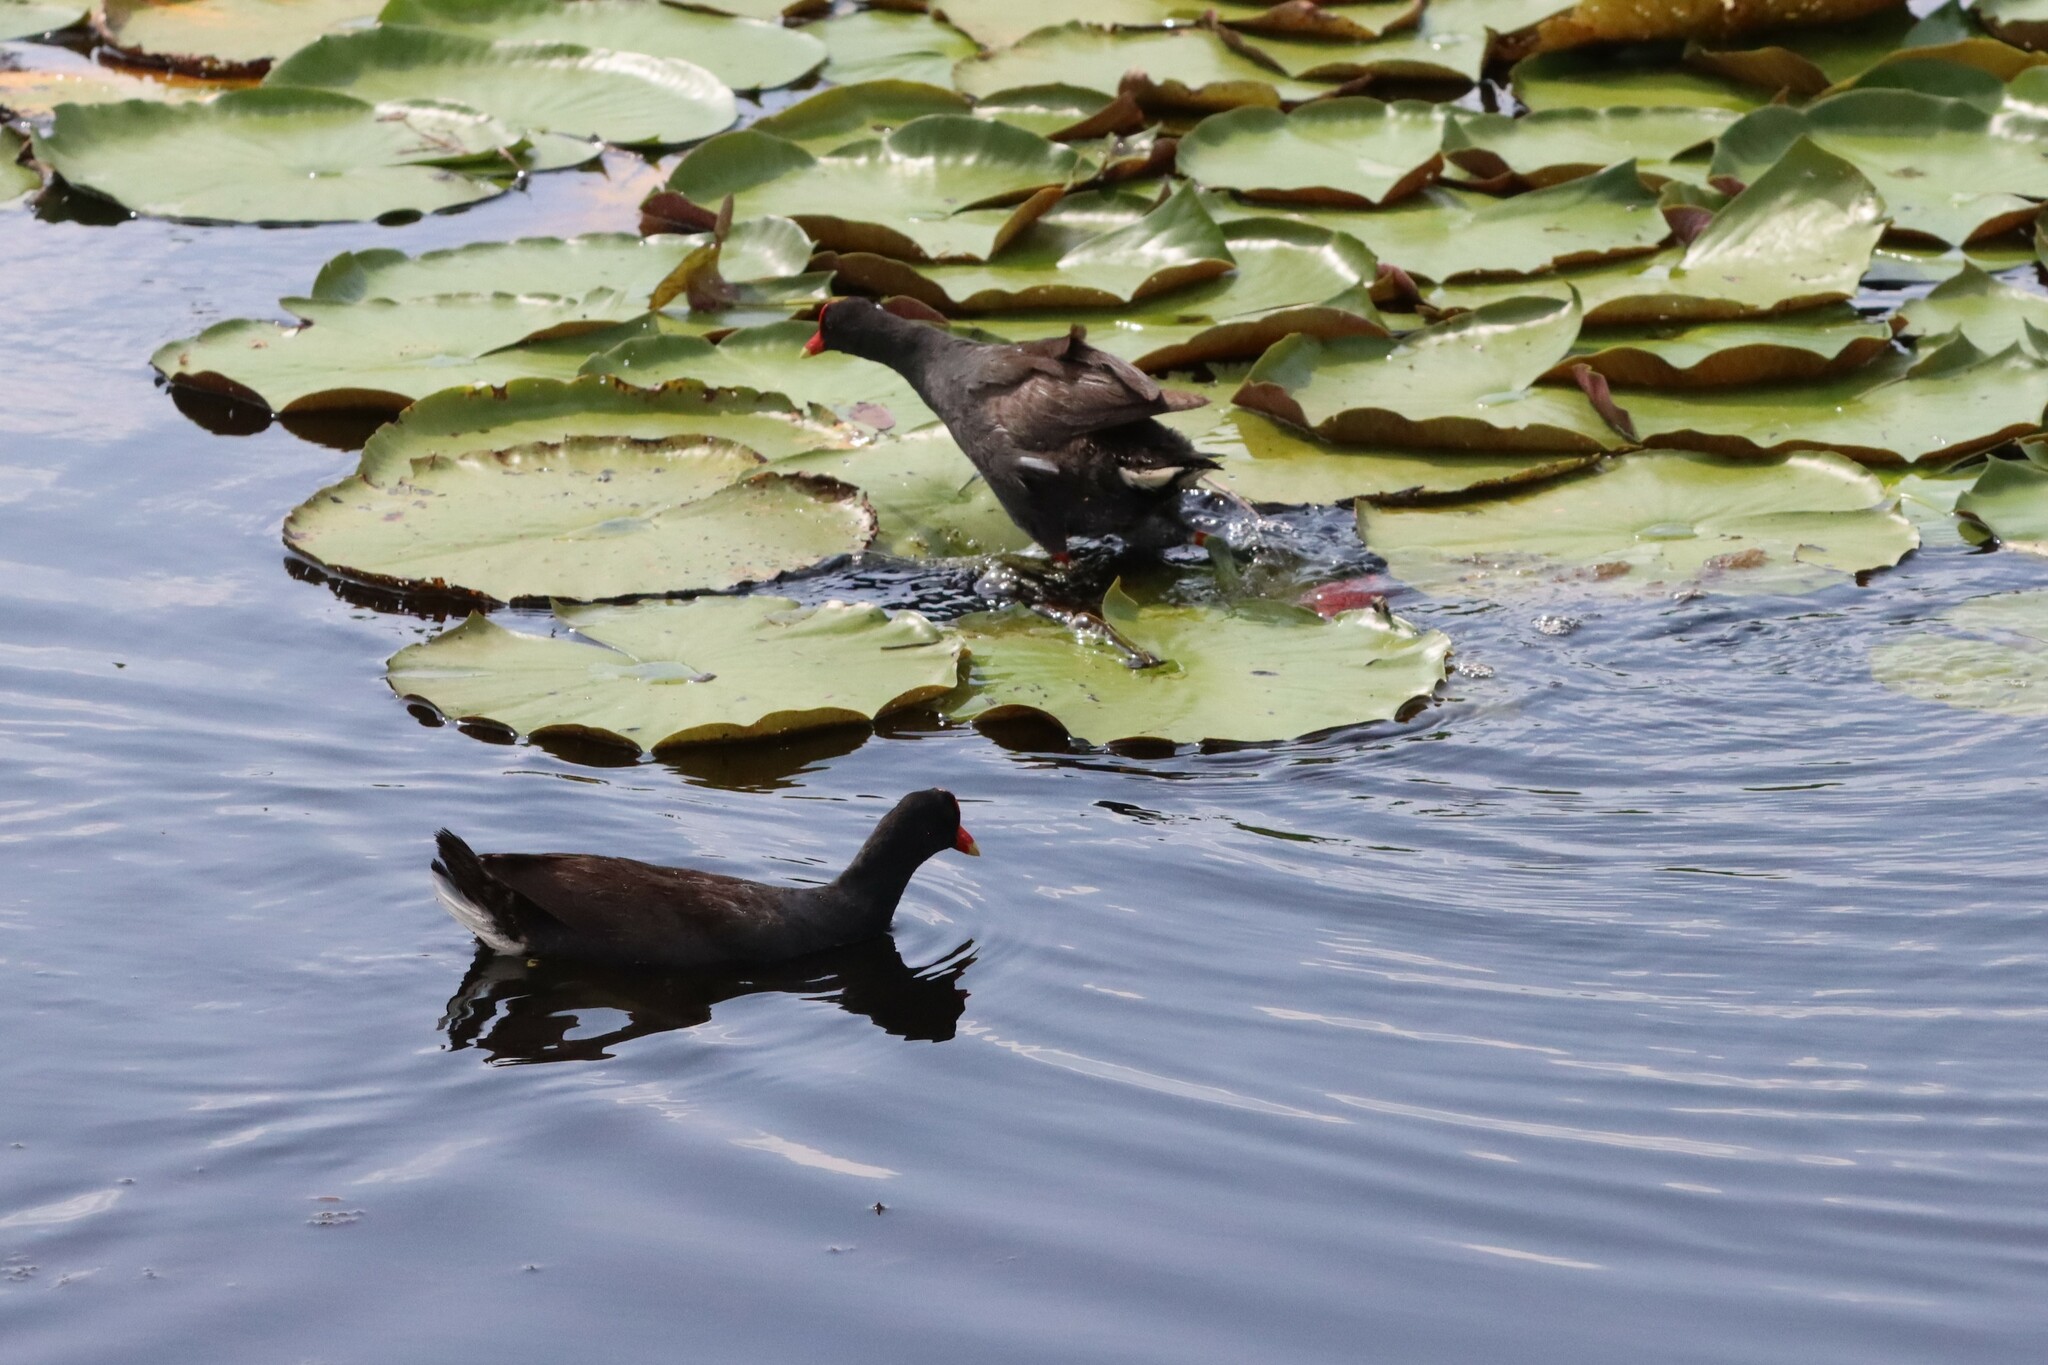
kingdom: Animalia
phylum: Chordata
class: Aves
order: Gruiformes
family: Rallidae
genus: Gallinula
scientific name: Gallinula chloropus
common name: Common moorhen
